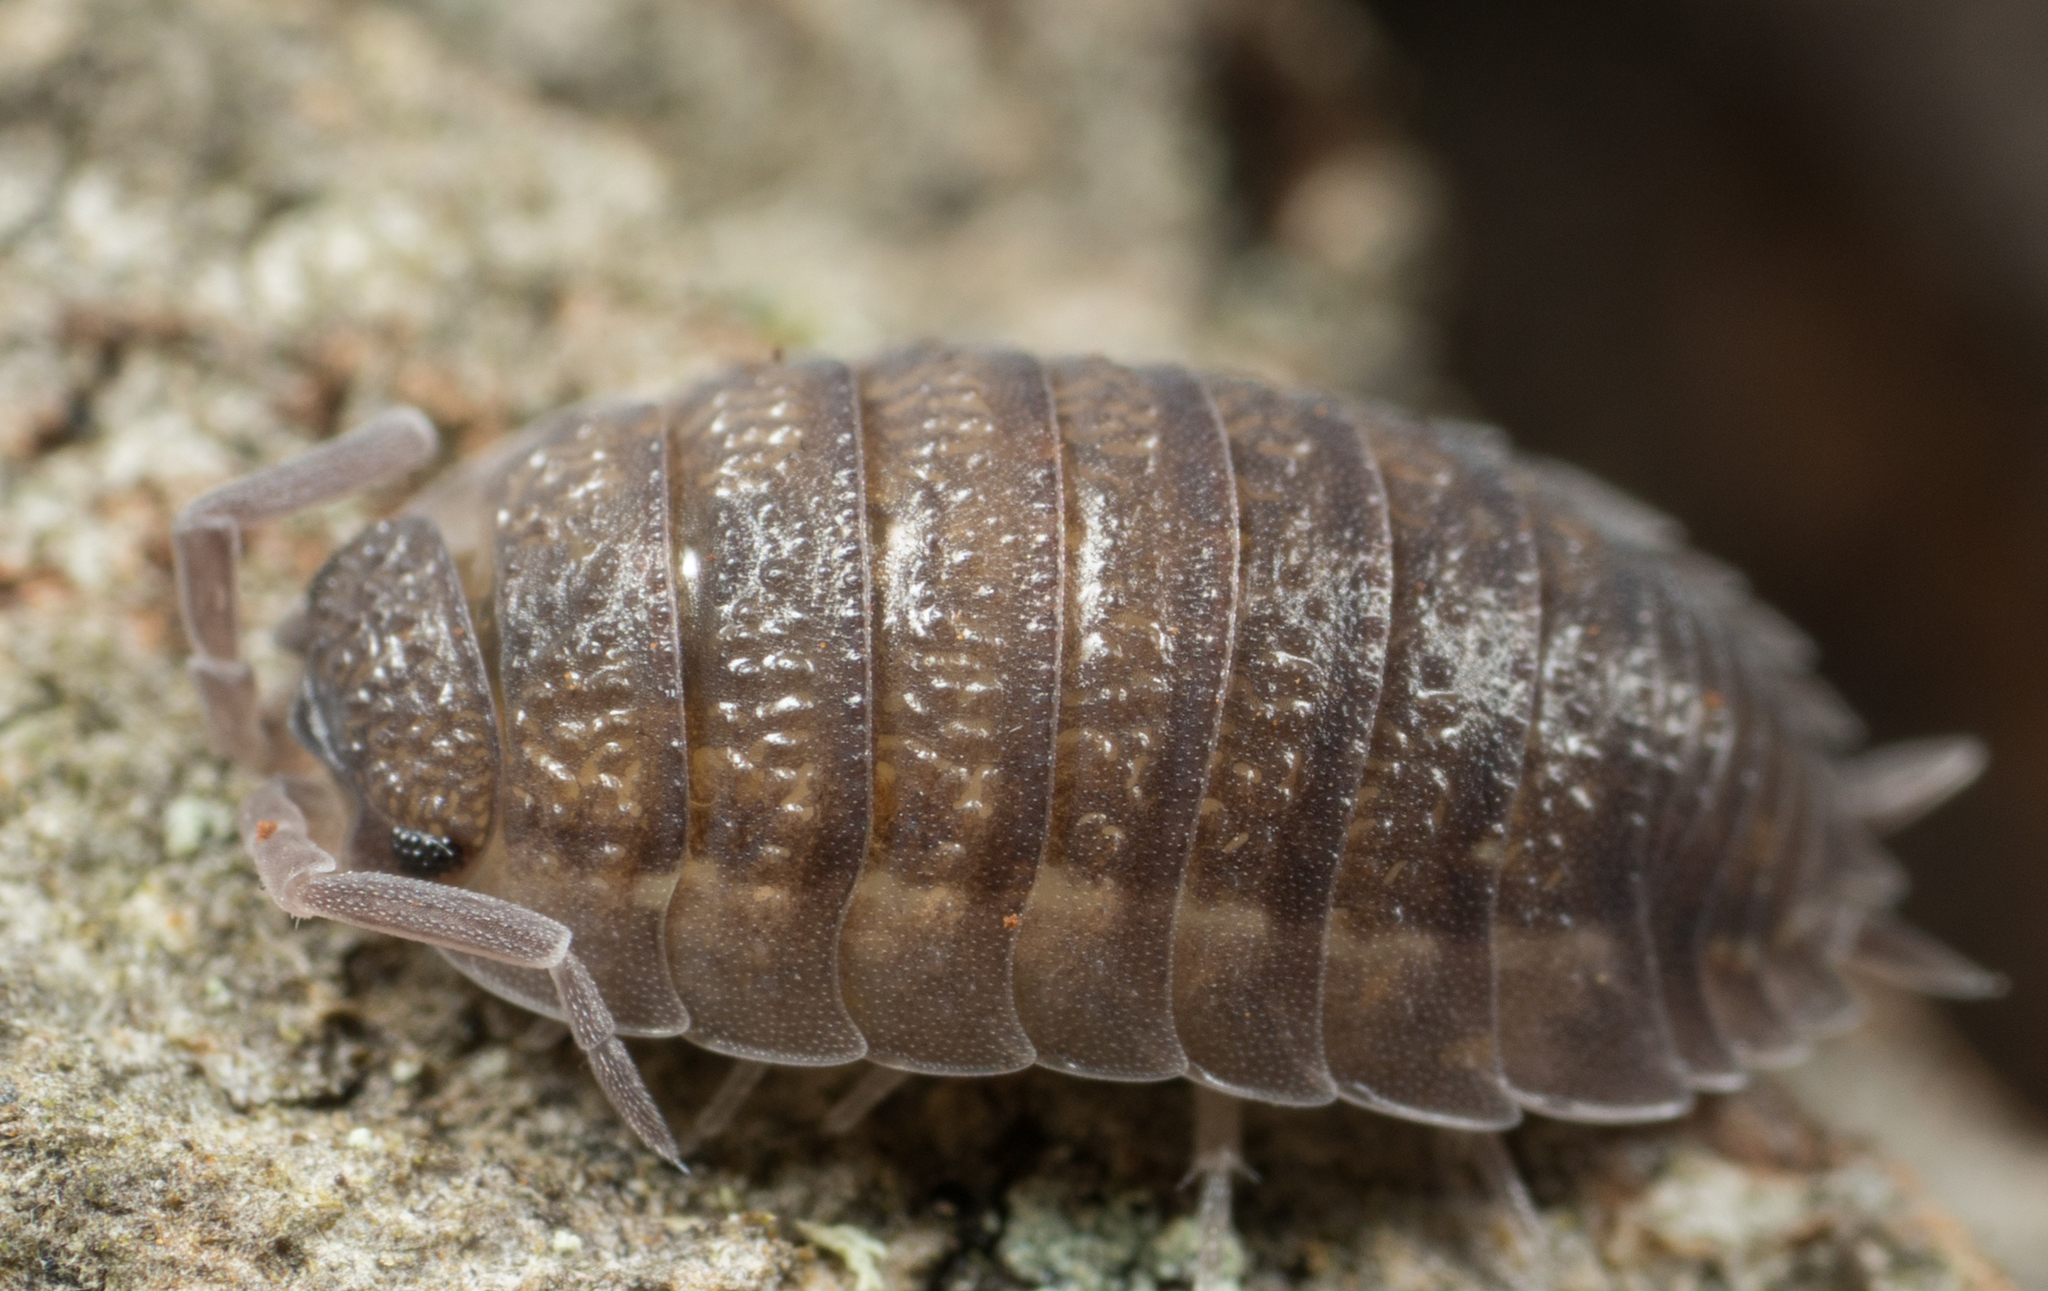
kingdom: Animalia
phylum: Arthropoda
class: Malacostraca
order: Isopoda
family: Porcellionidae
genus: Porcellio
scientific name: Porcellio scaber
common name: Common rough woodlouse
